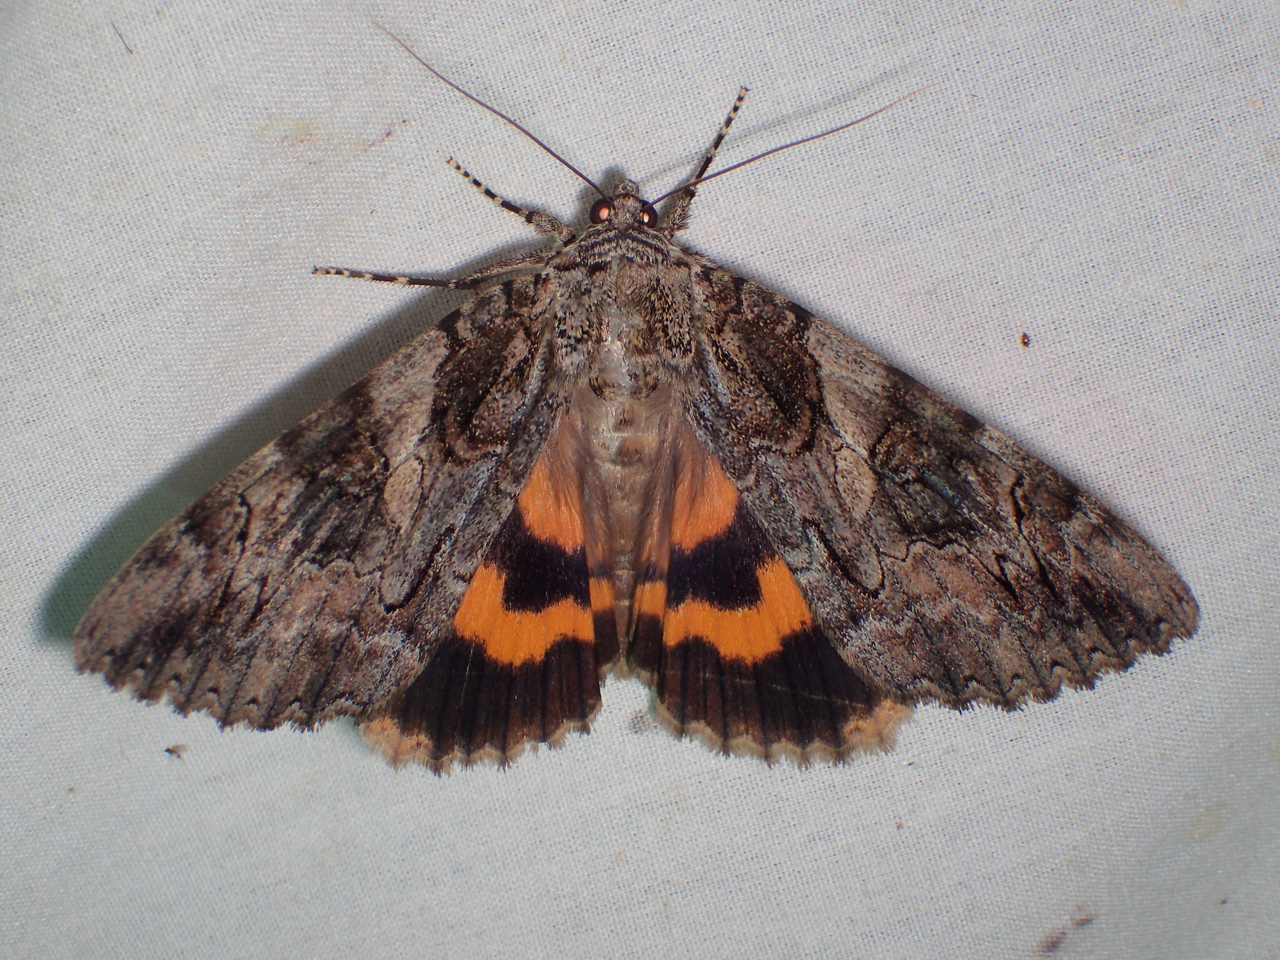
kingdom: Animalia
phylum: Arthropoda
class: Insecta
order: Lepidoptera
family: Erebidae
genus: Catocala
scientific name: Catocala piatrix
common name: The penitent underwing
